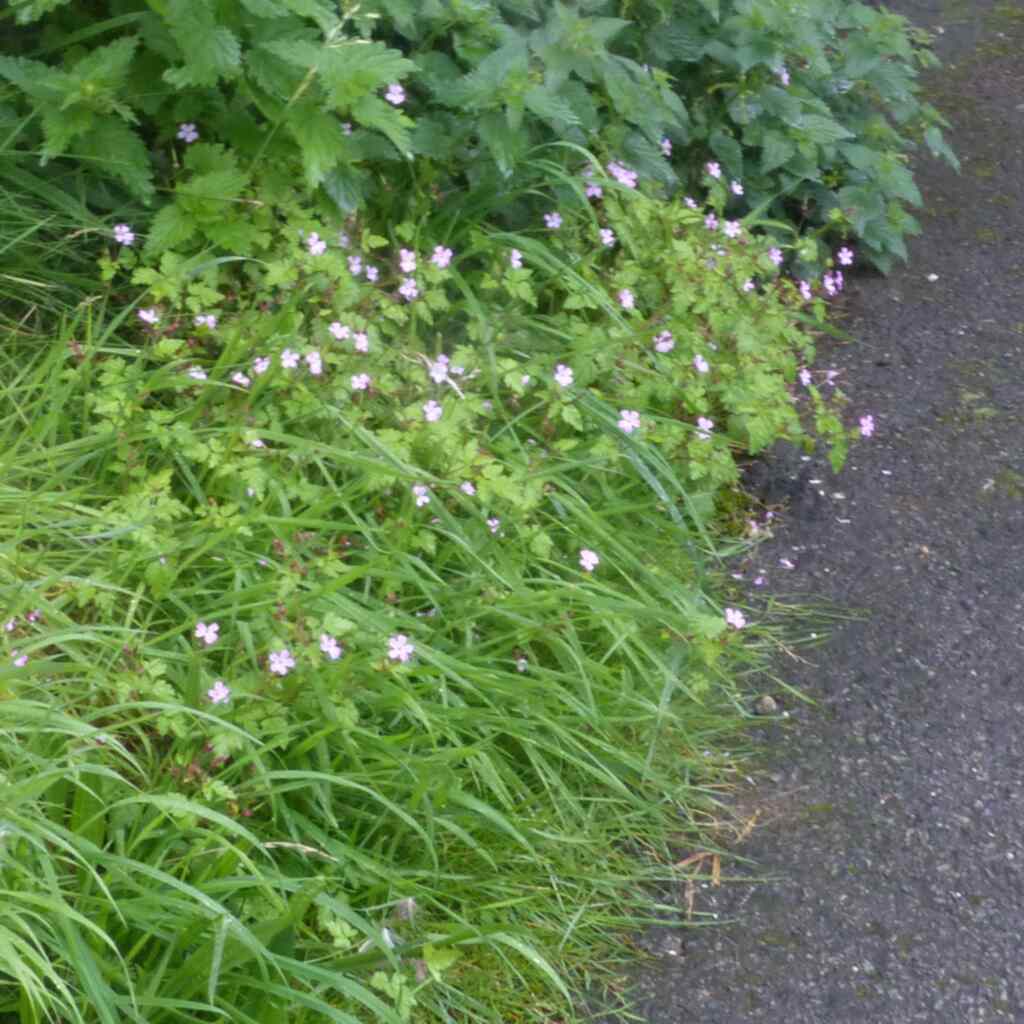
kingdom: Plantae
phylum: Tracheophyta
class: Magnoliopsida
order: Geraniales
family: Geraniaceae
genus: Geranium
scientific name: Geranium robertianum
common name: Herb-robert
